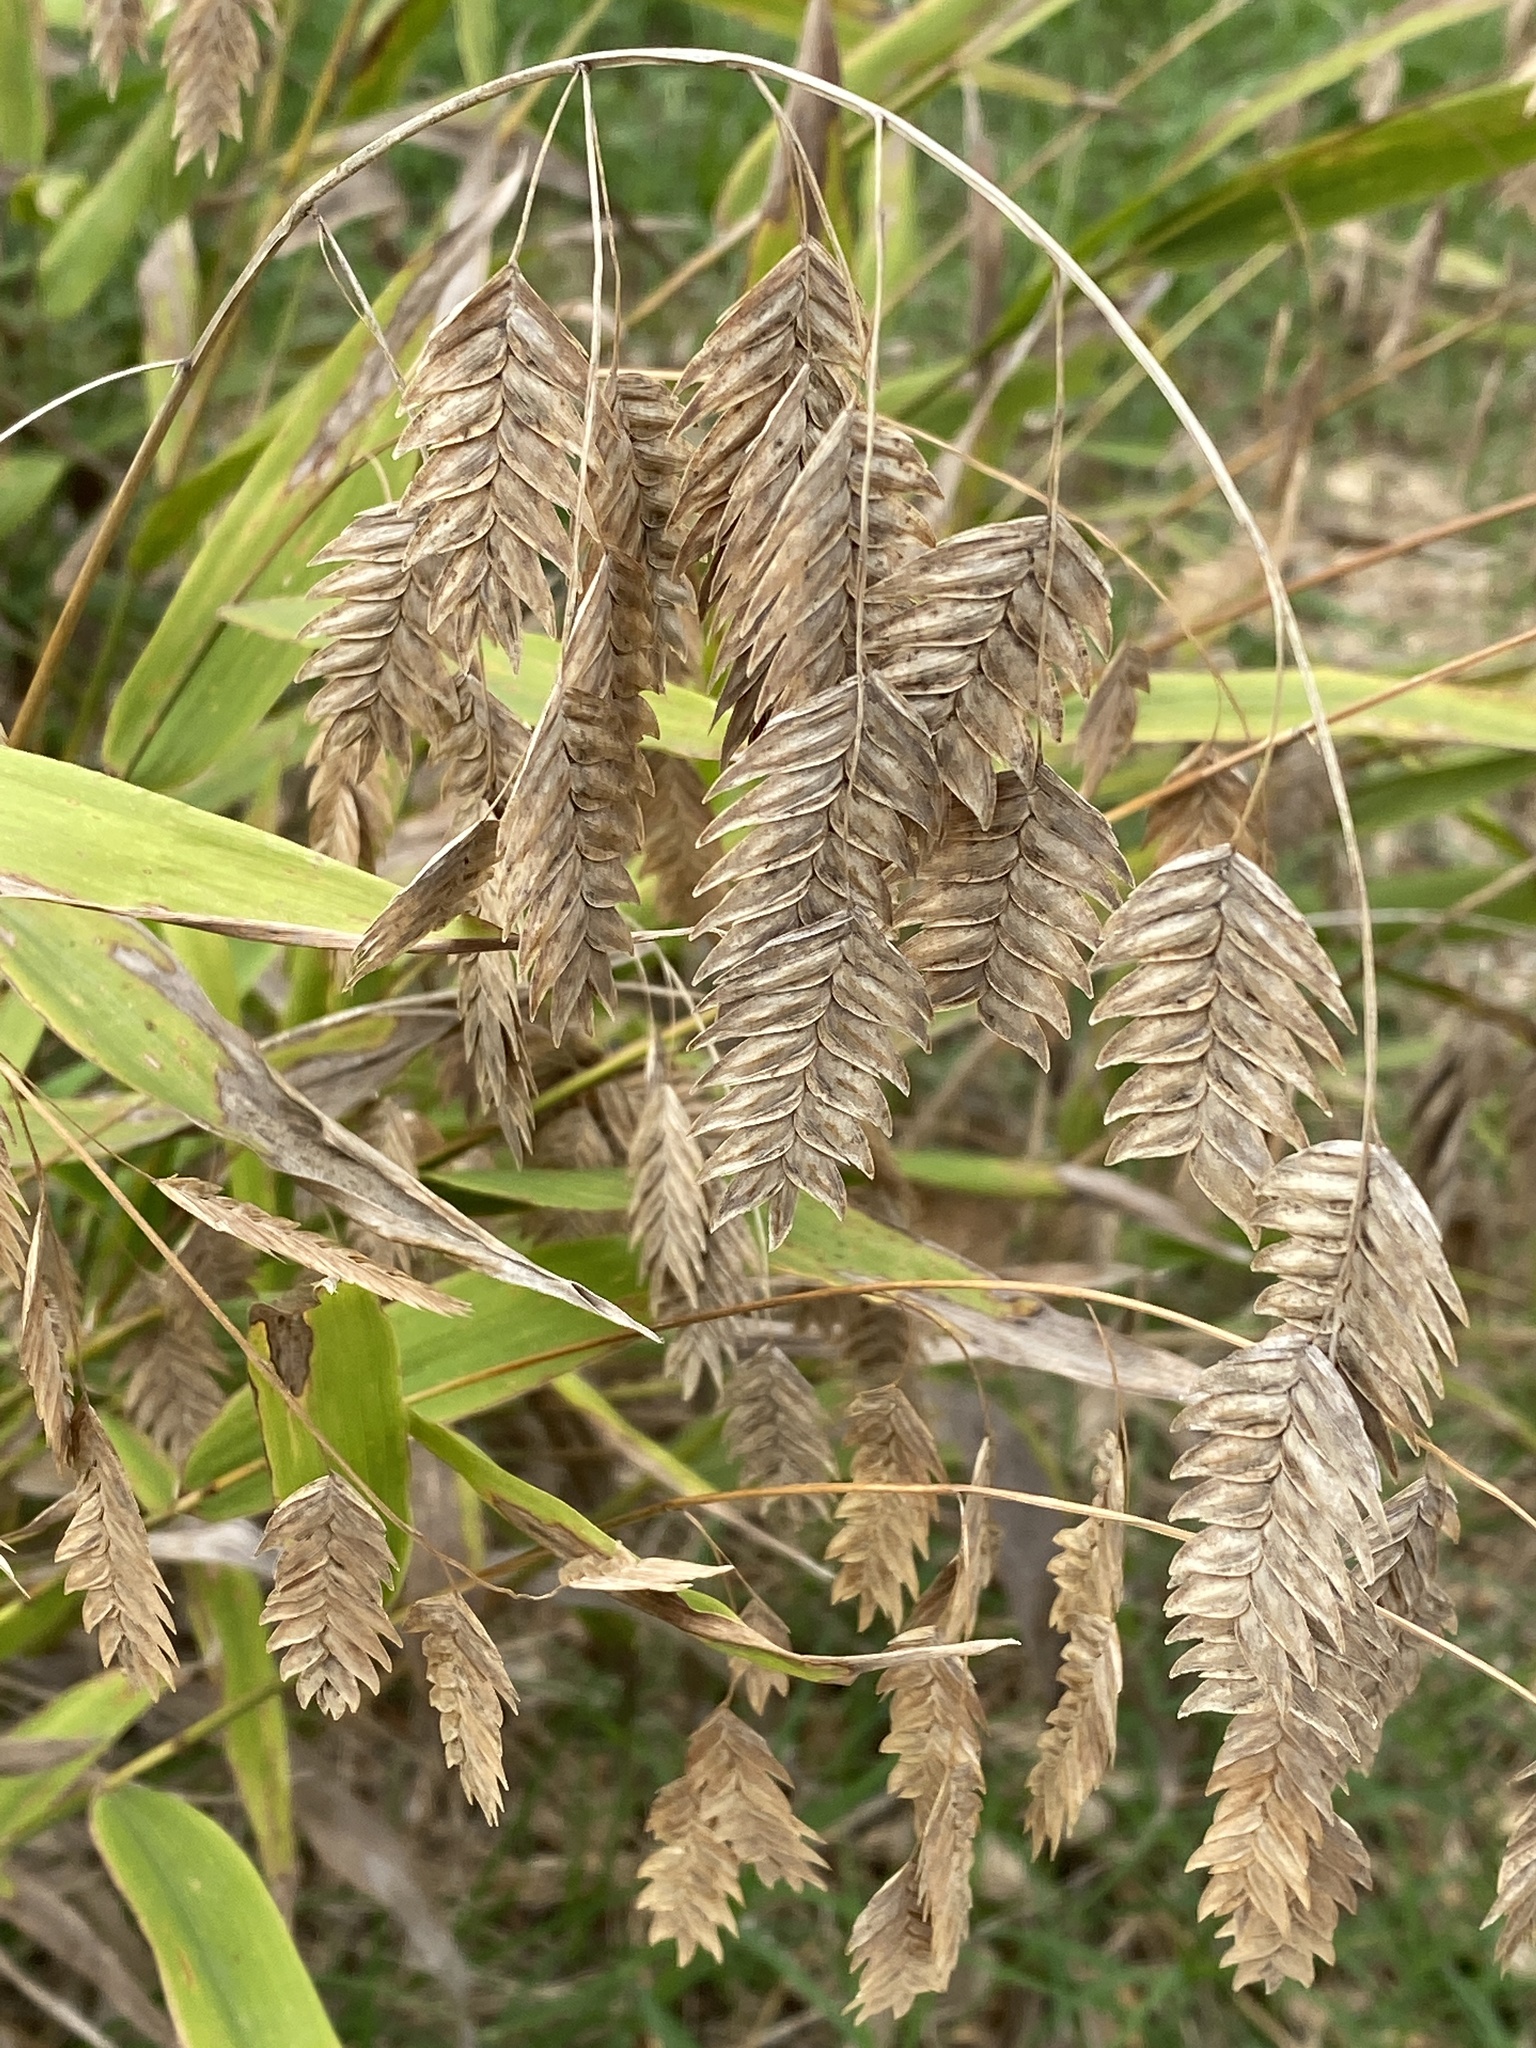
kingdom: Plantae
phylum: Tracheophyta
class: Liliopsida
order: Poales
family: Poaceae
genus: Chasmanthium
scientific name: Chasmanthium latifolium
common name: Broad-leaved chasmanthium
